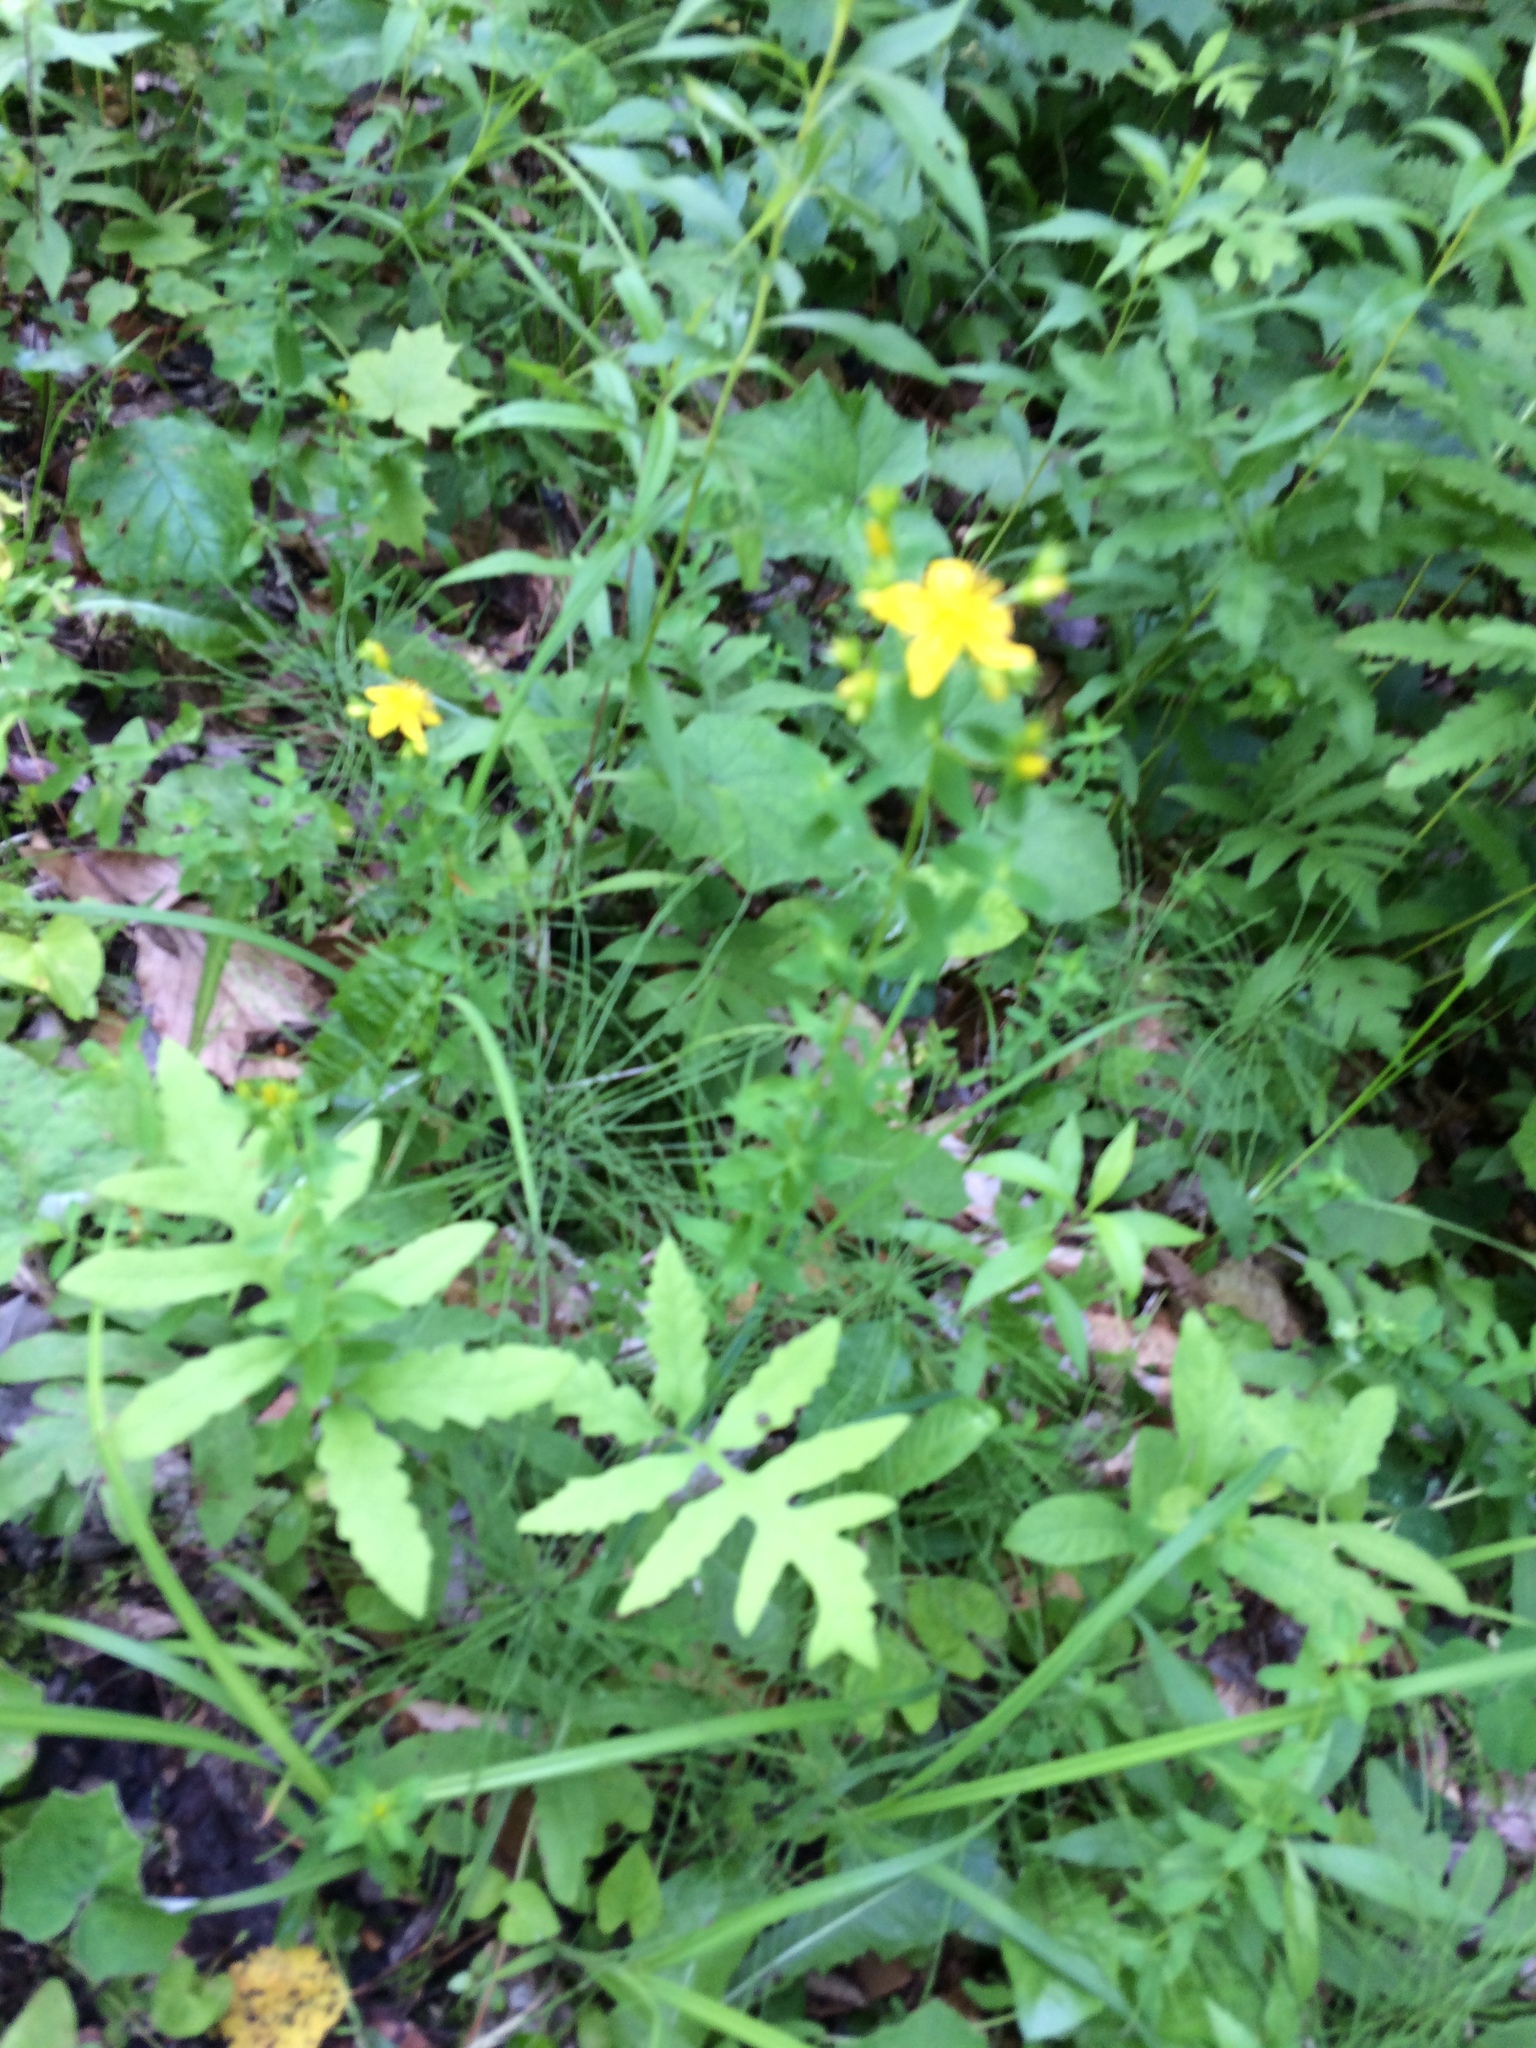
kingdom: Plantae
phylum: Tracheophyta
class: Magnoliopsida
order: Malpighiales
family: Hypericaceae
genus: Hypericum
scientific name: Hypericum
